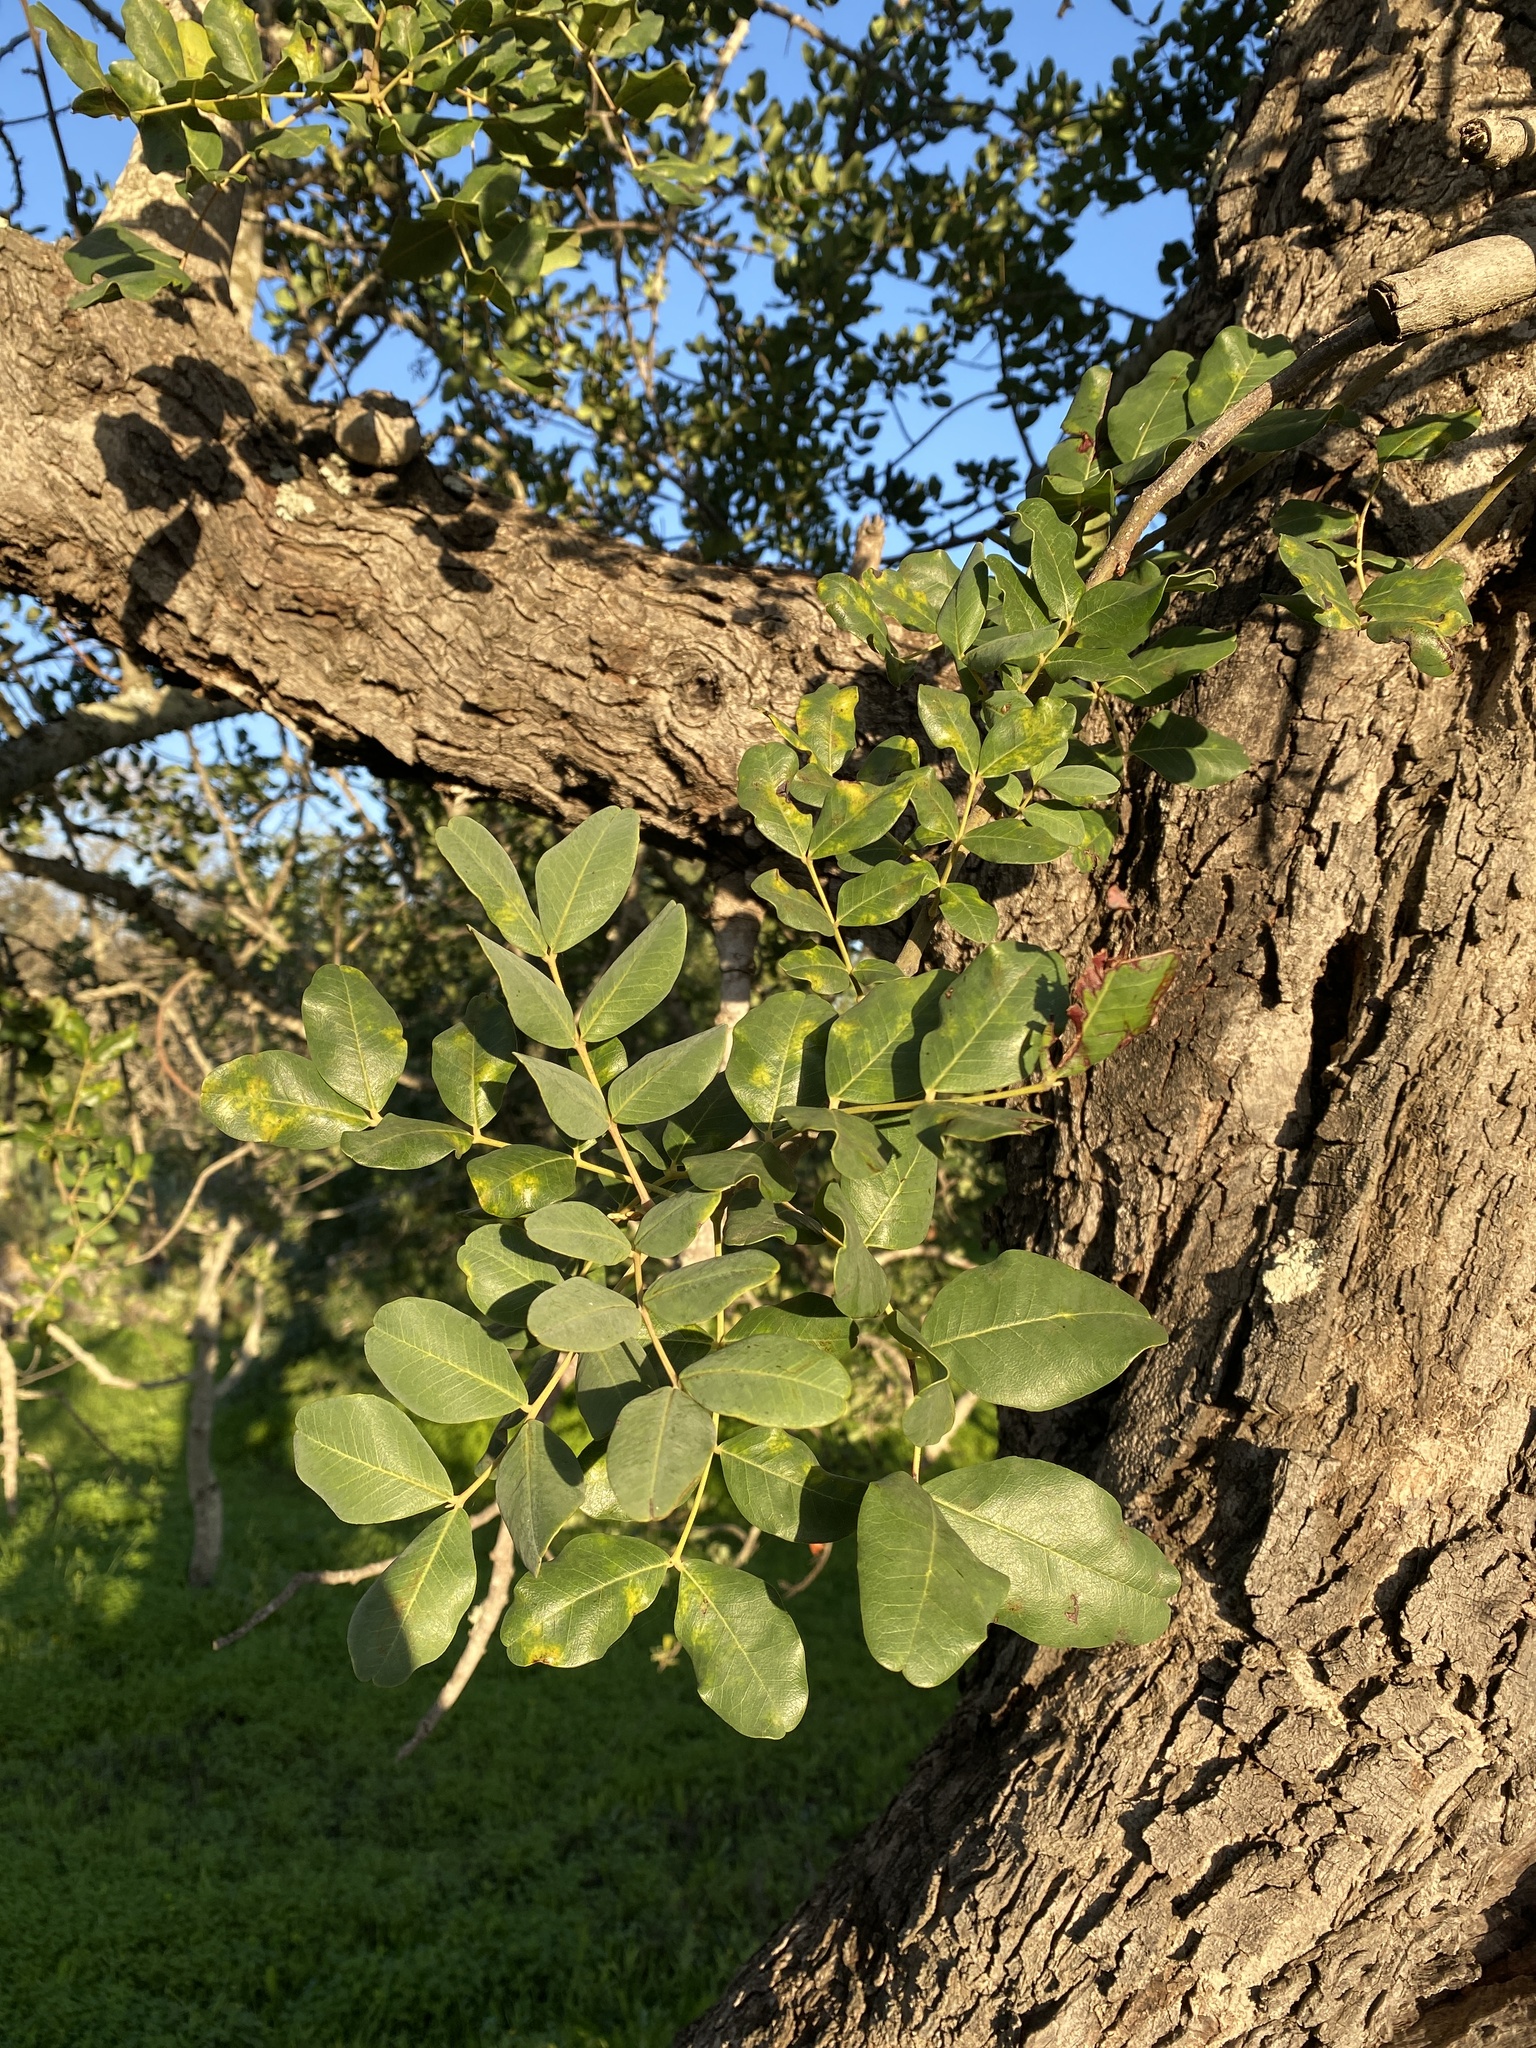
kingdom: Plantae
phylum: Tracheophyta
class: Magnoliopsida
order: Fabales
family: Fabaceae
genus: Ceratonia
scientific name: Ceratonia siliqua
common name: Carob
